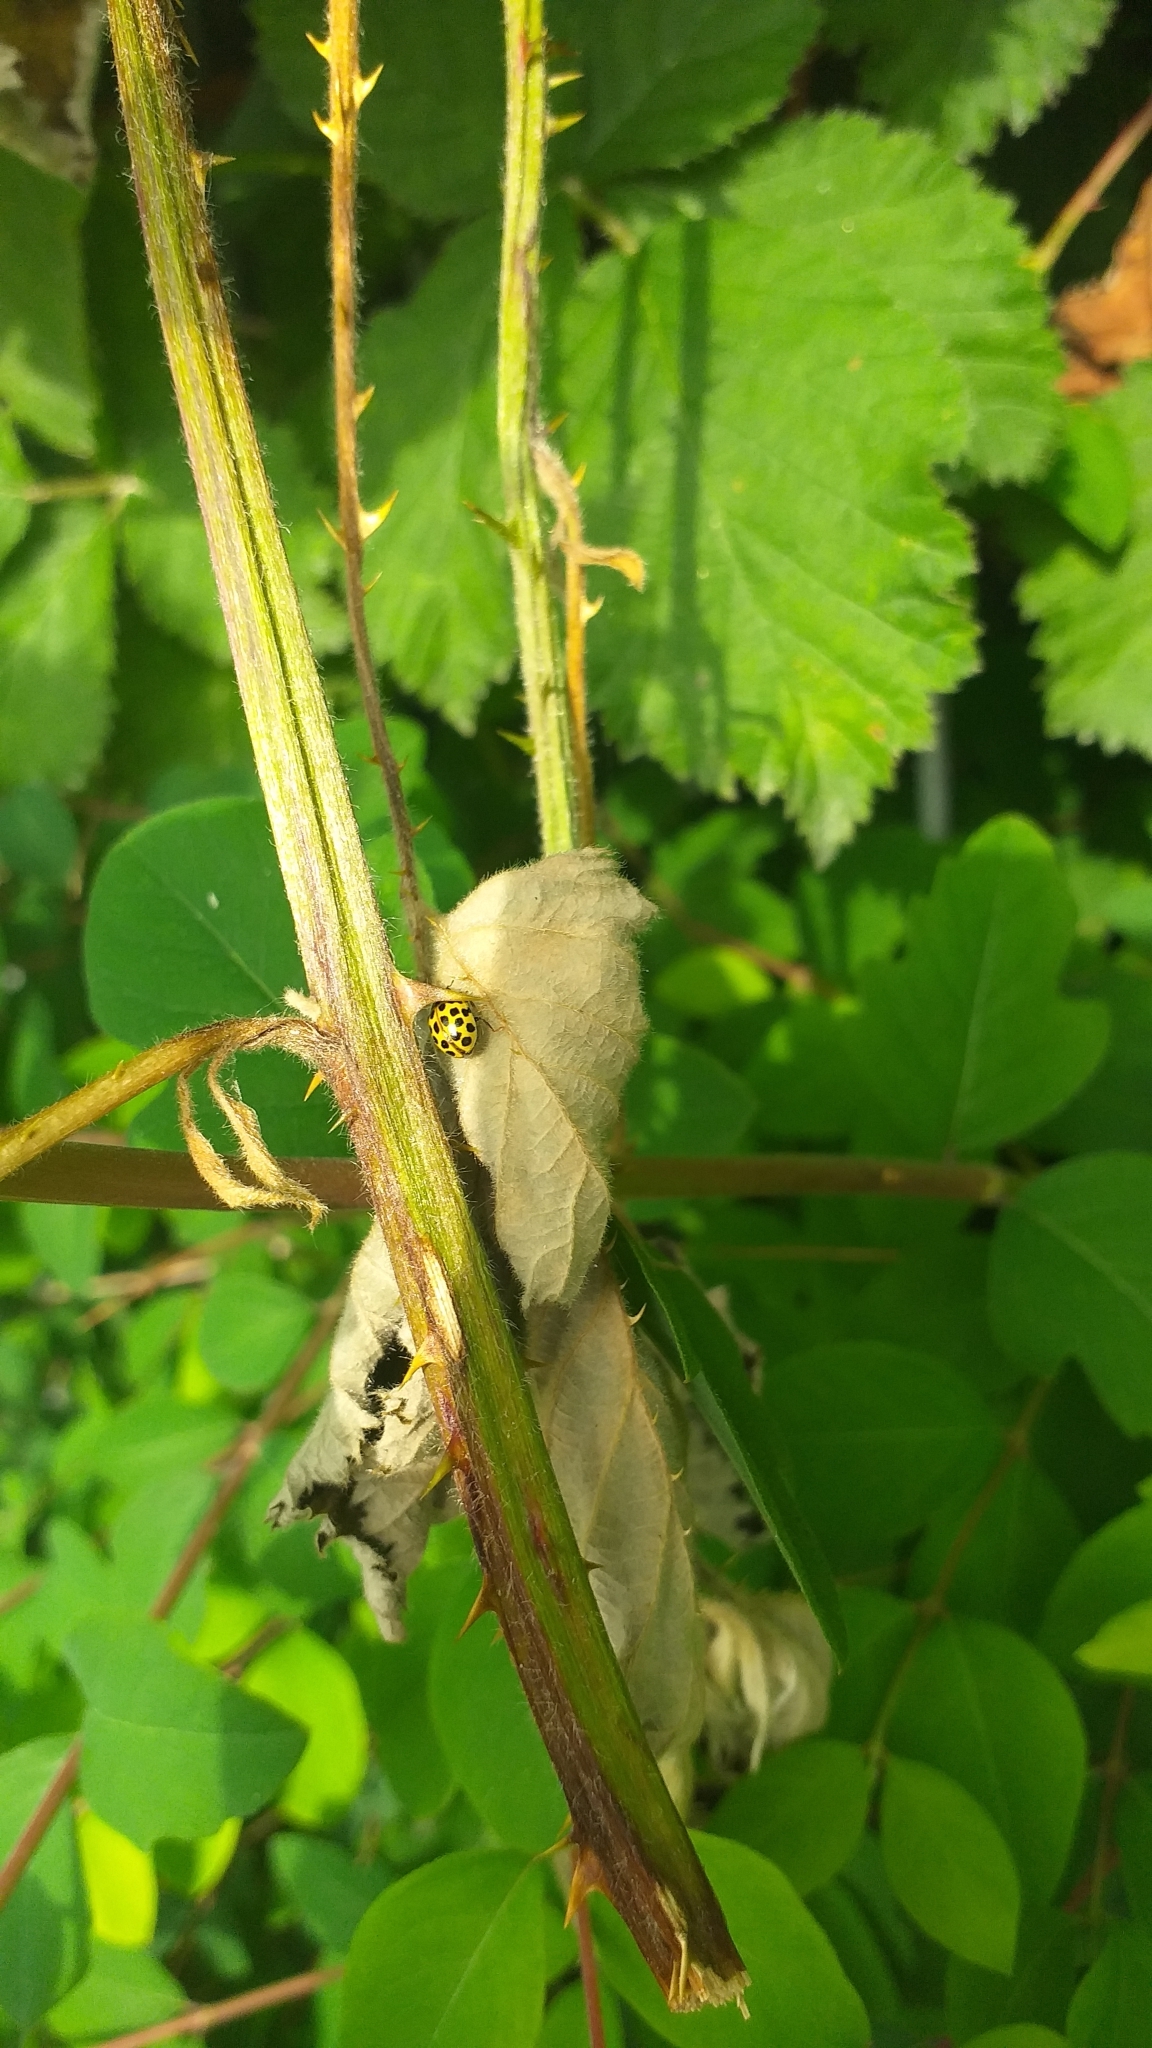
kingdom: Animalia
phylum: Arthropoda
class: Insecta
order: Coleoptera
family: Coccinellidae
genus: Psyllobora
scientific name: Psyllobora vigintiduopunctata
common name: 22-spot ladybird
